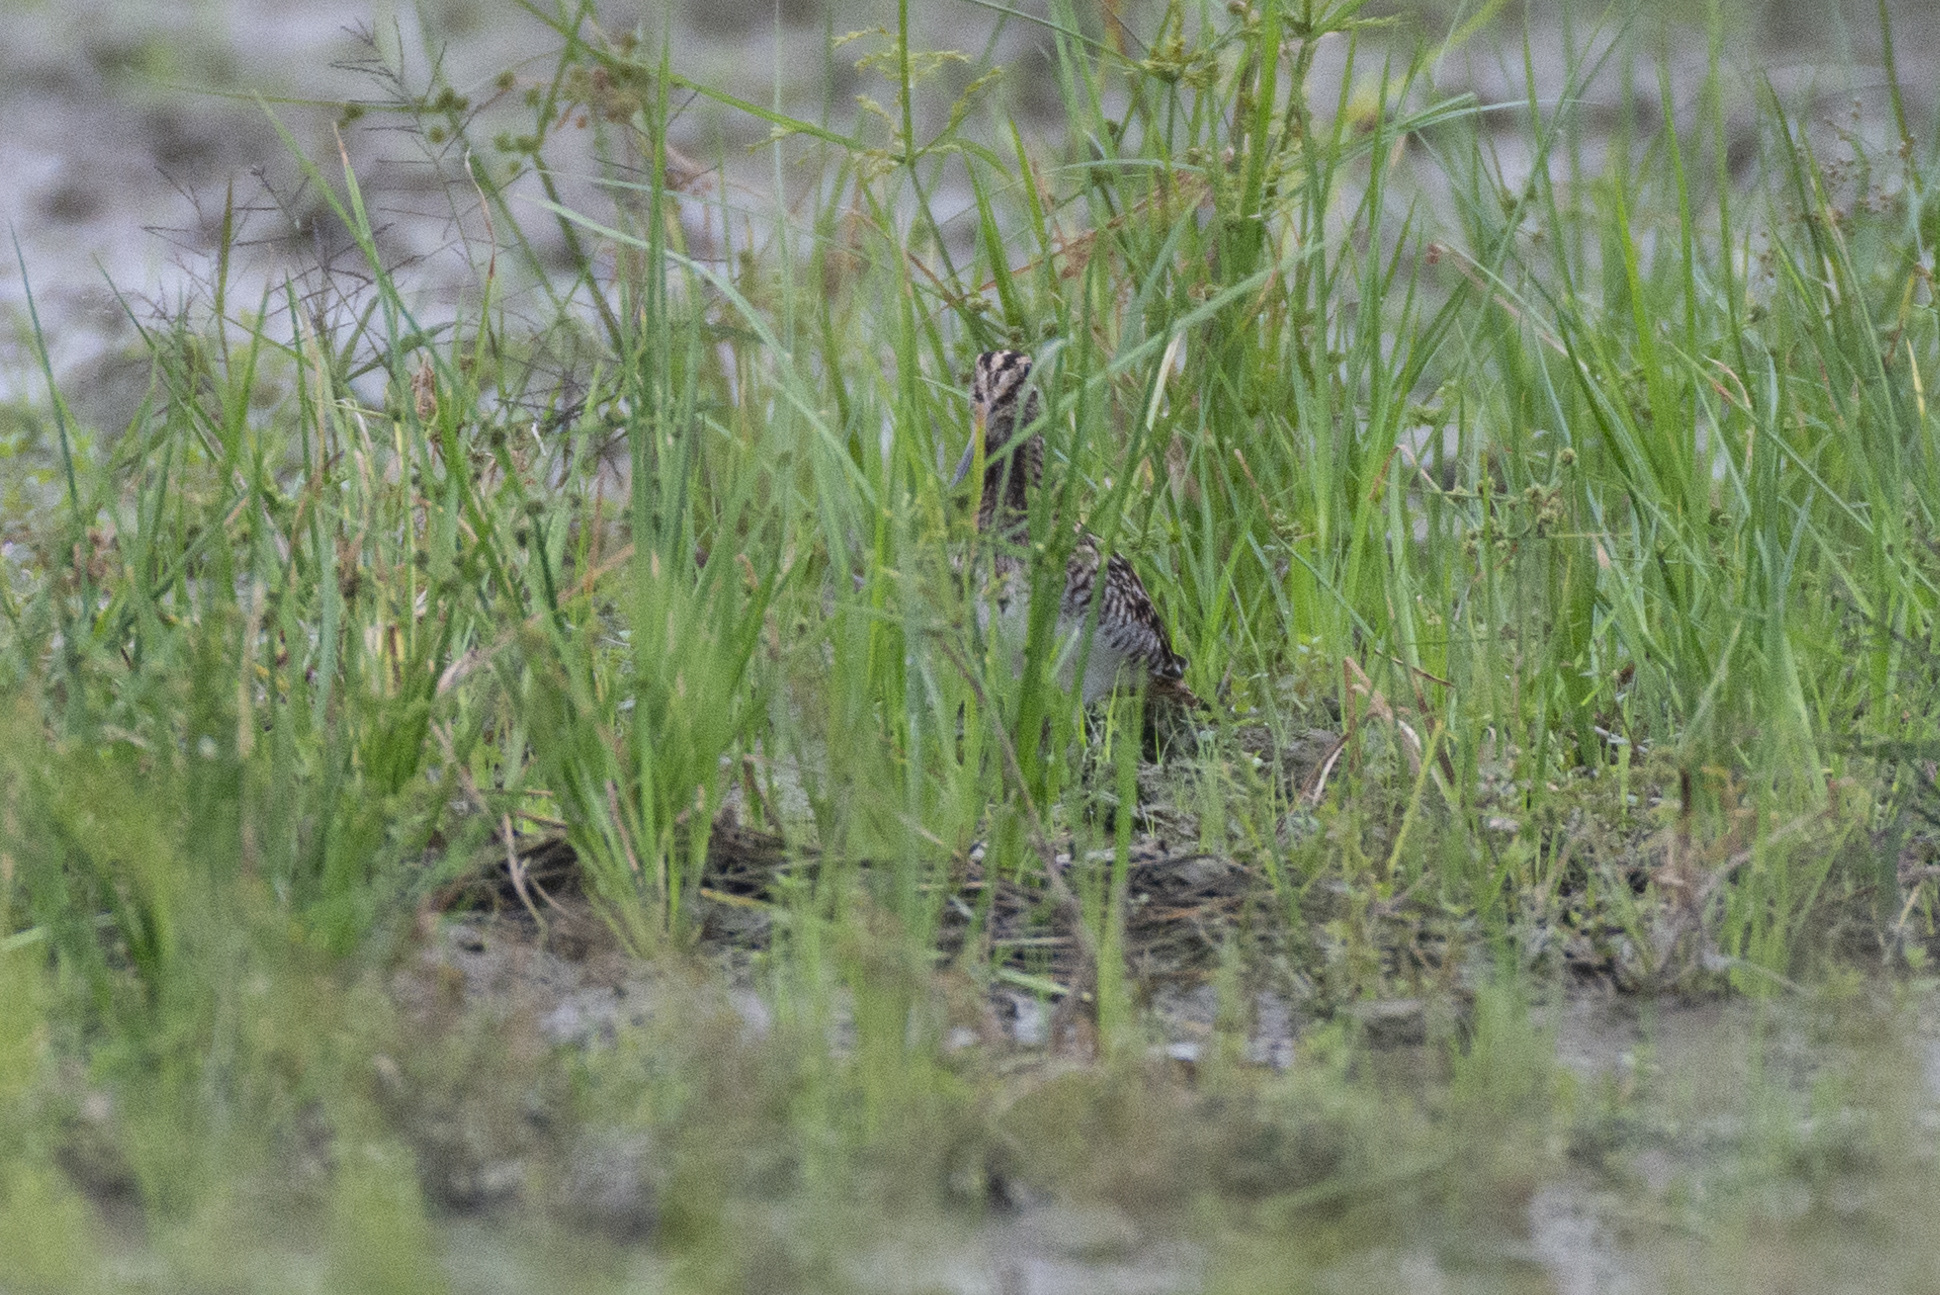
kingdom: Animalia
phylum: Chordata
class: Aves
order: Charadriiformes
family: Scolopacidae
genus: Gallinago
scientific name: Gallinago gallinago
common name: Common snipe
